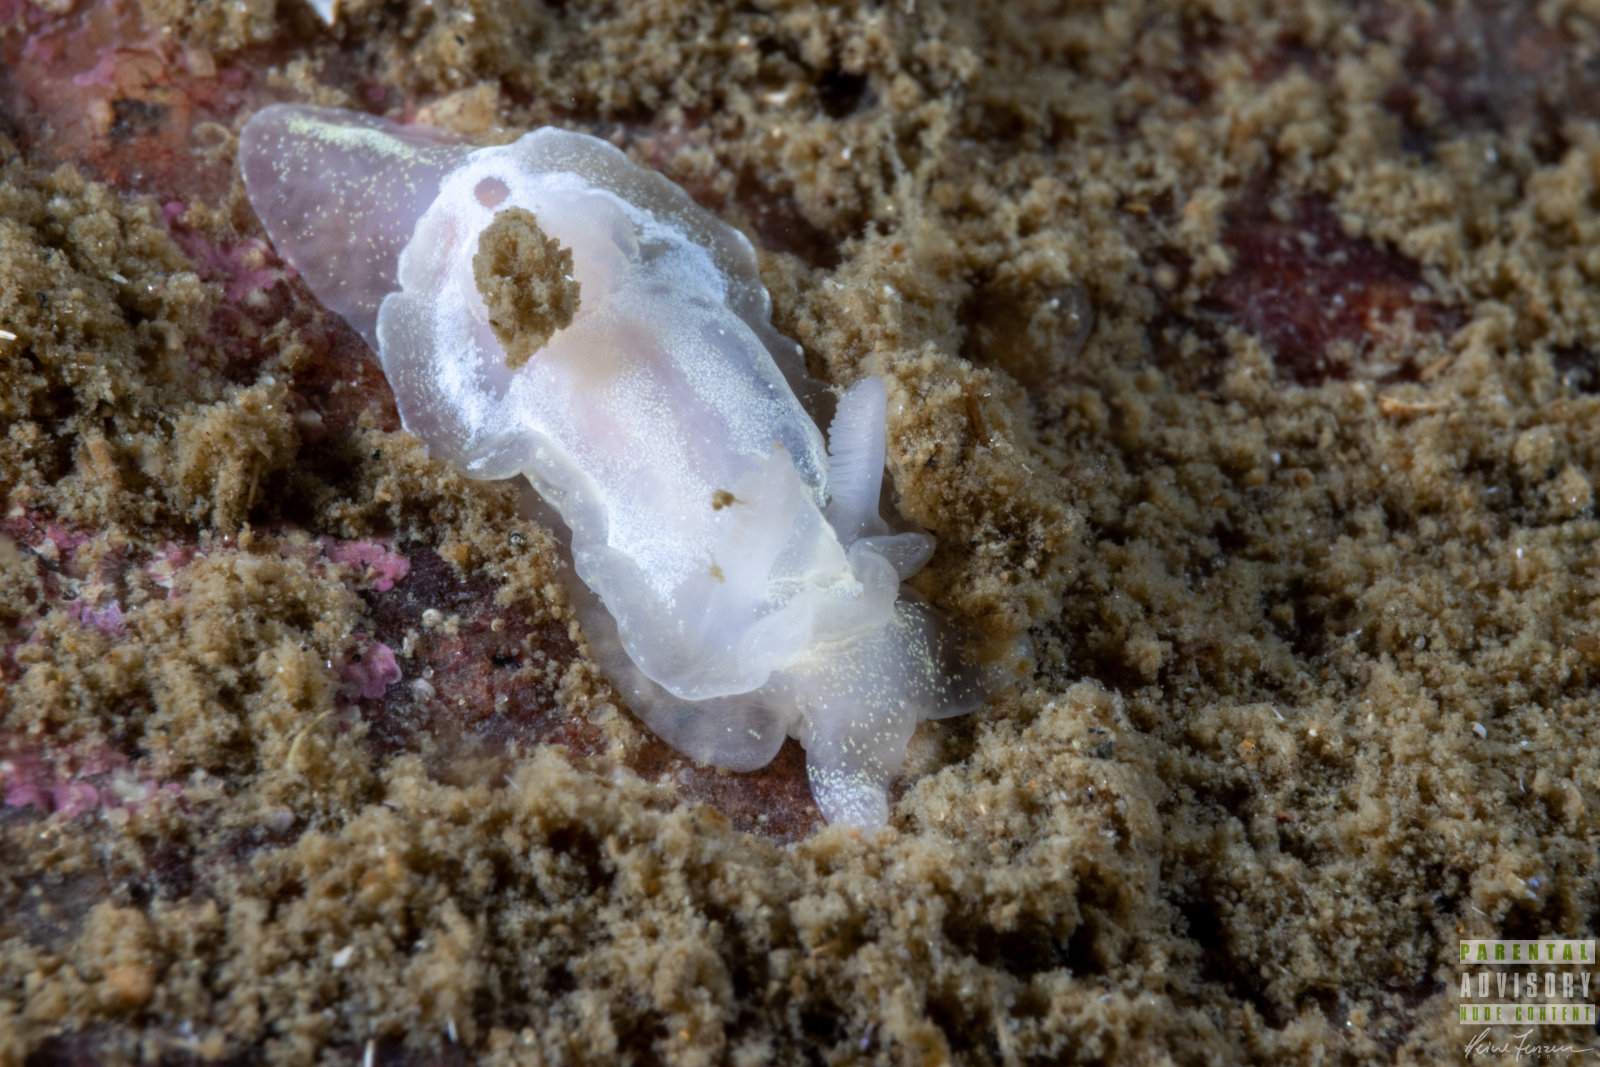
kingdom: Animalia
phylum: Mollusca
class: Gastropoda
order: Nudibranchia
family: Goniodorididae
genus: Okenia
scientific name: Okenia
